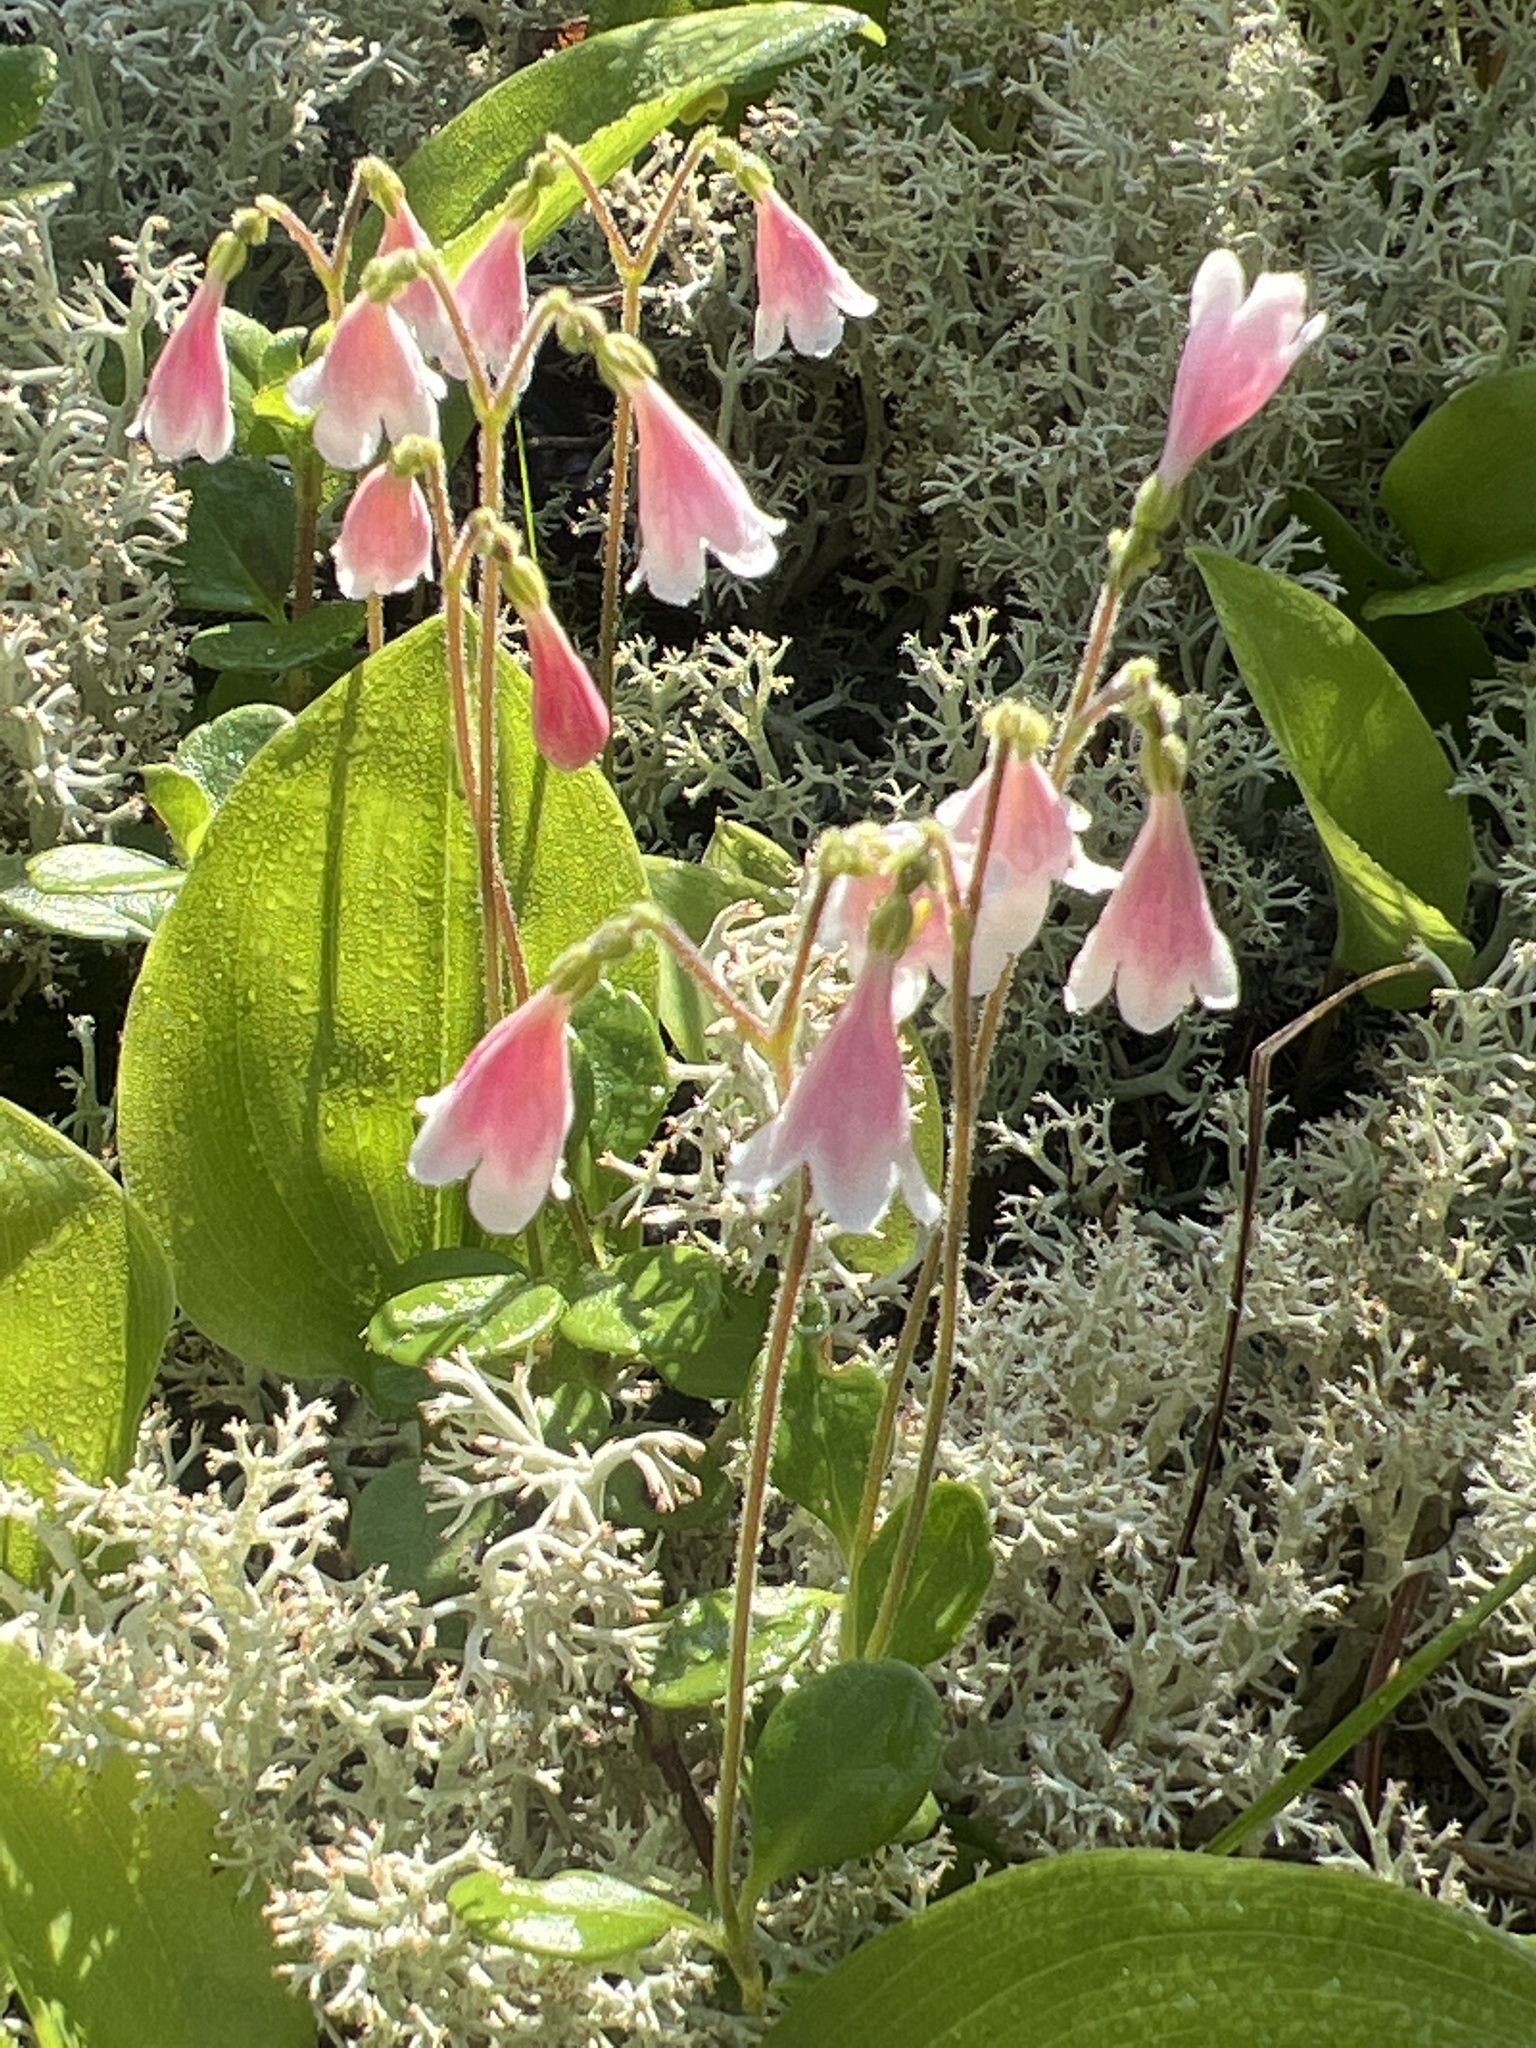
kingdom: Plantae
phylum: Tracheophyta
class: Magnoliopsida
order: Dipsacales
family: Caprifoliaceae
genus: Linnaea
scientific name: Linnaea borealis
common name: Twinflower
